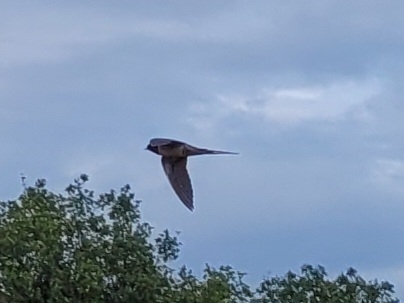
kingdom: Animalia
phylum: Chordata
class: Aves
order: Passeriformes
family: Hirundinidae
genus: Hirundo
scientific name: Hirundo rustica
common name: Barn swallow
